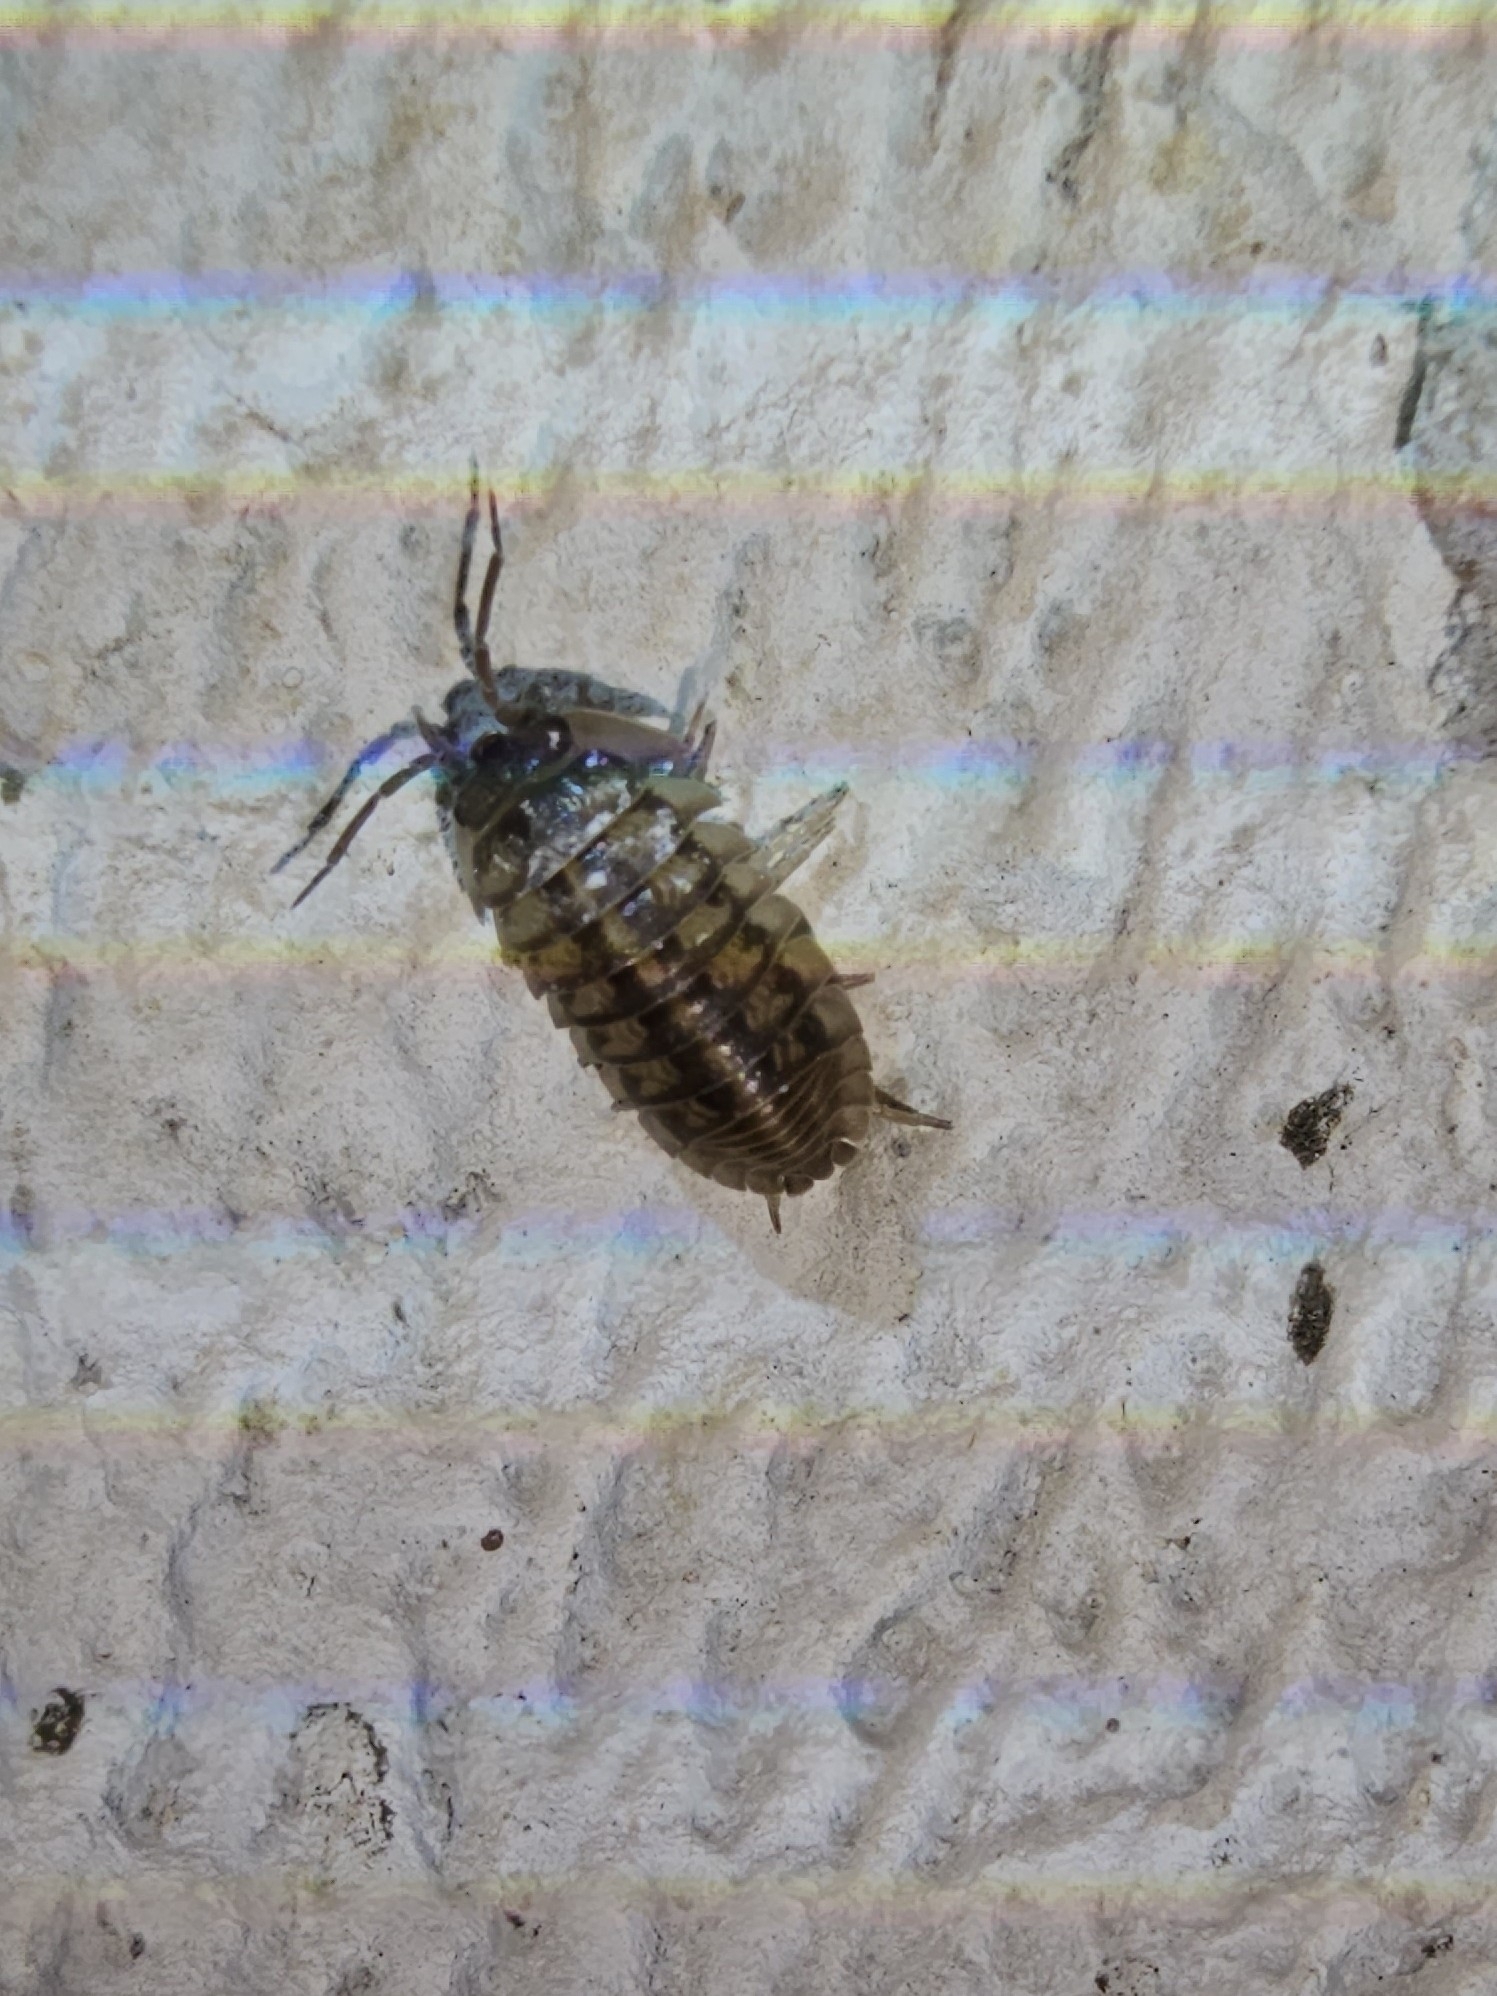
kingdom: Animalia
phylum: Arthropoda
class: Malacostraca
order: Isopoda
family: Armadillidiidae
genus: Armadillidium
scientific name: Armadillidium nasatum
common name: Isopod
